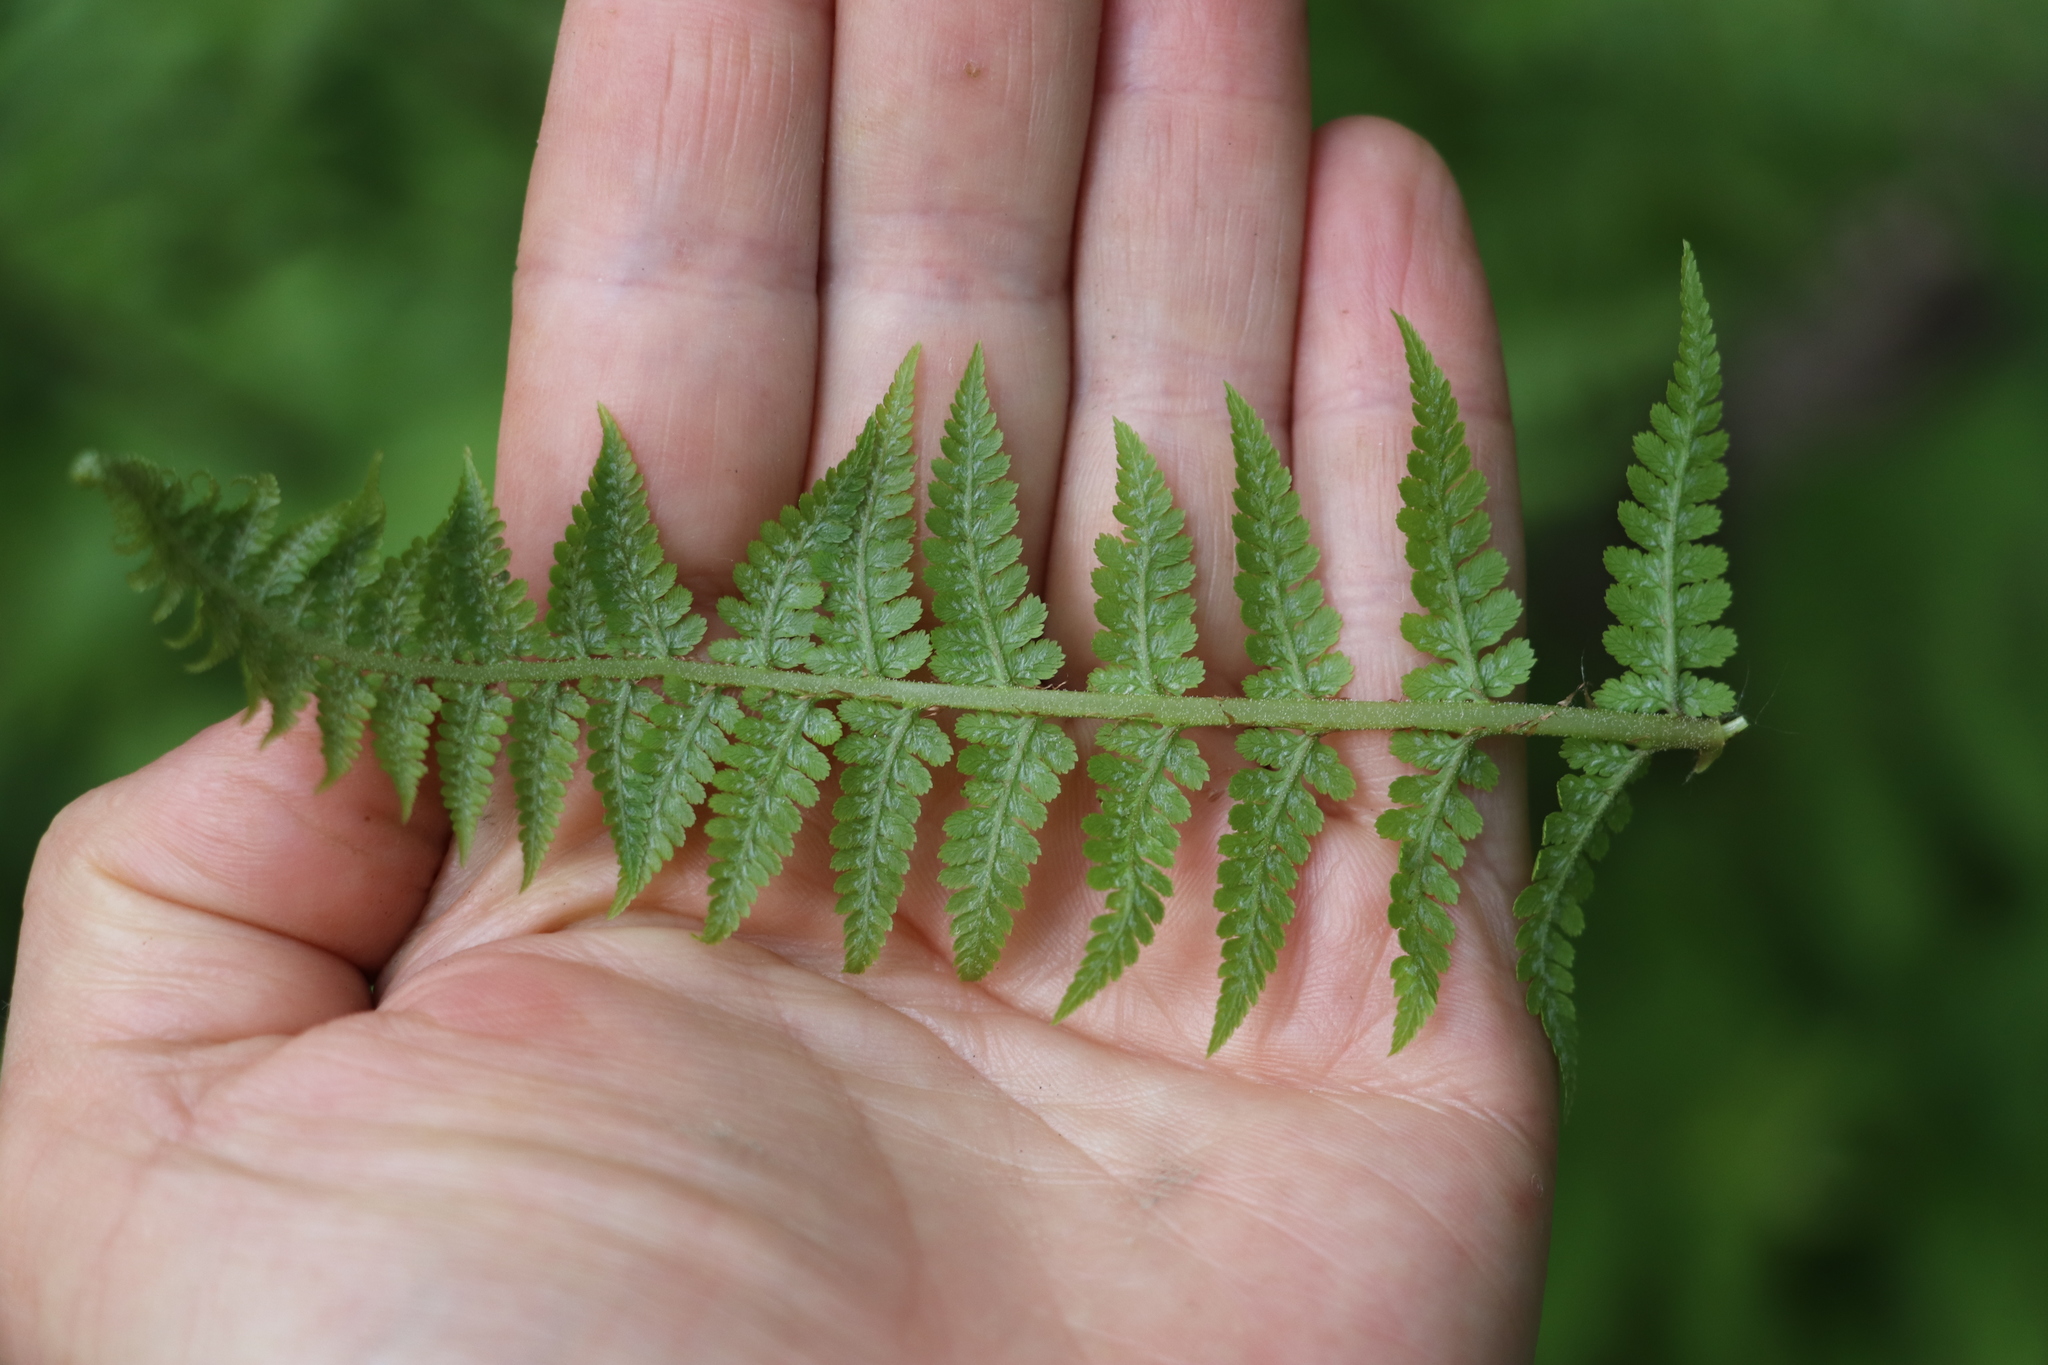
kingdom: Plantae
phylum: Tracheophyta
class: Polypodiopsida
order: Polypodiales
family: Athyriaceae
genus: Athyrium
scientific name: Athyrium filix-femina
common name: Lady fern
